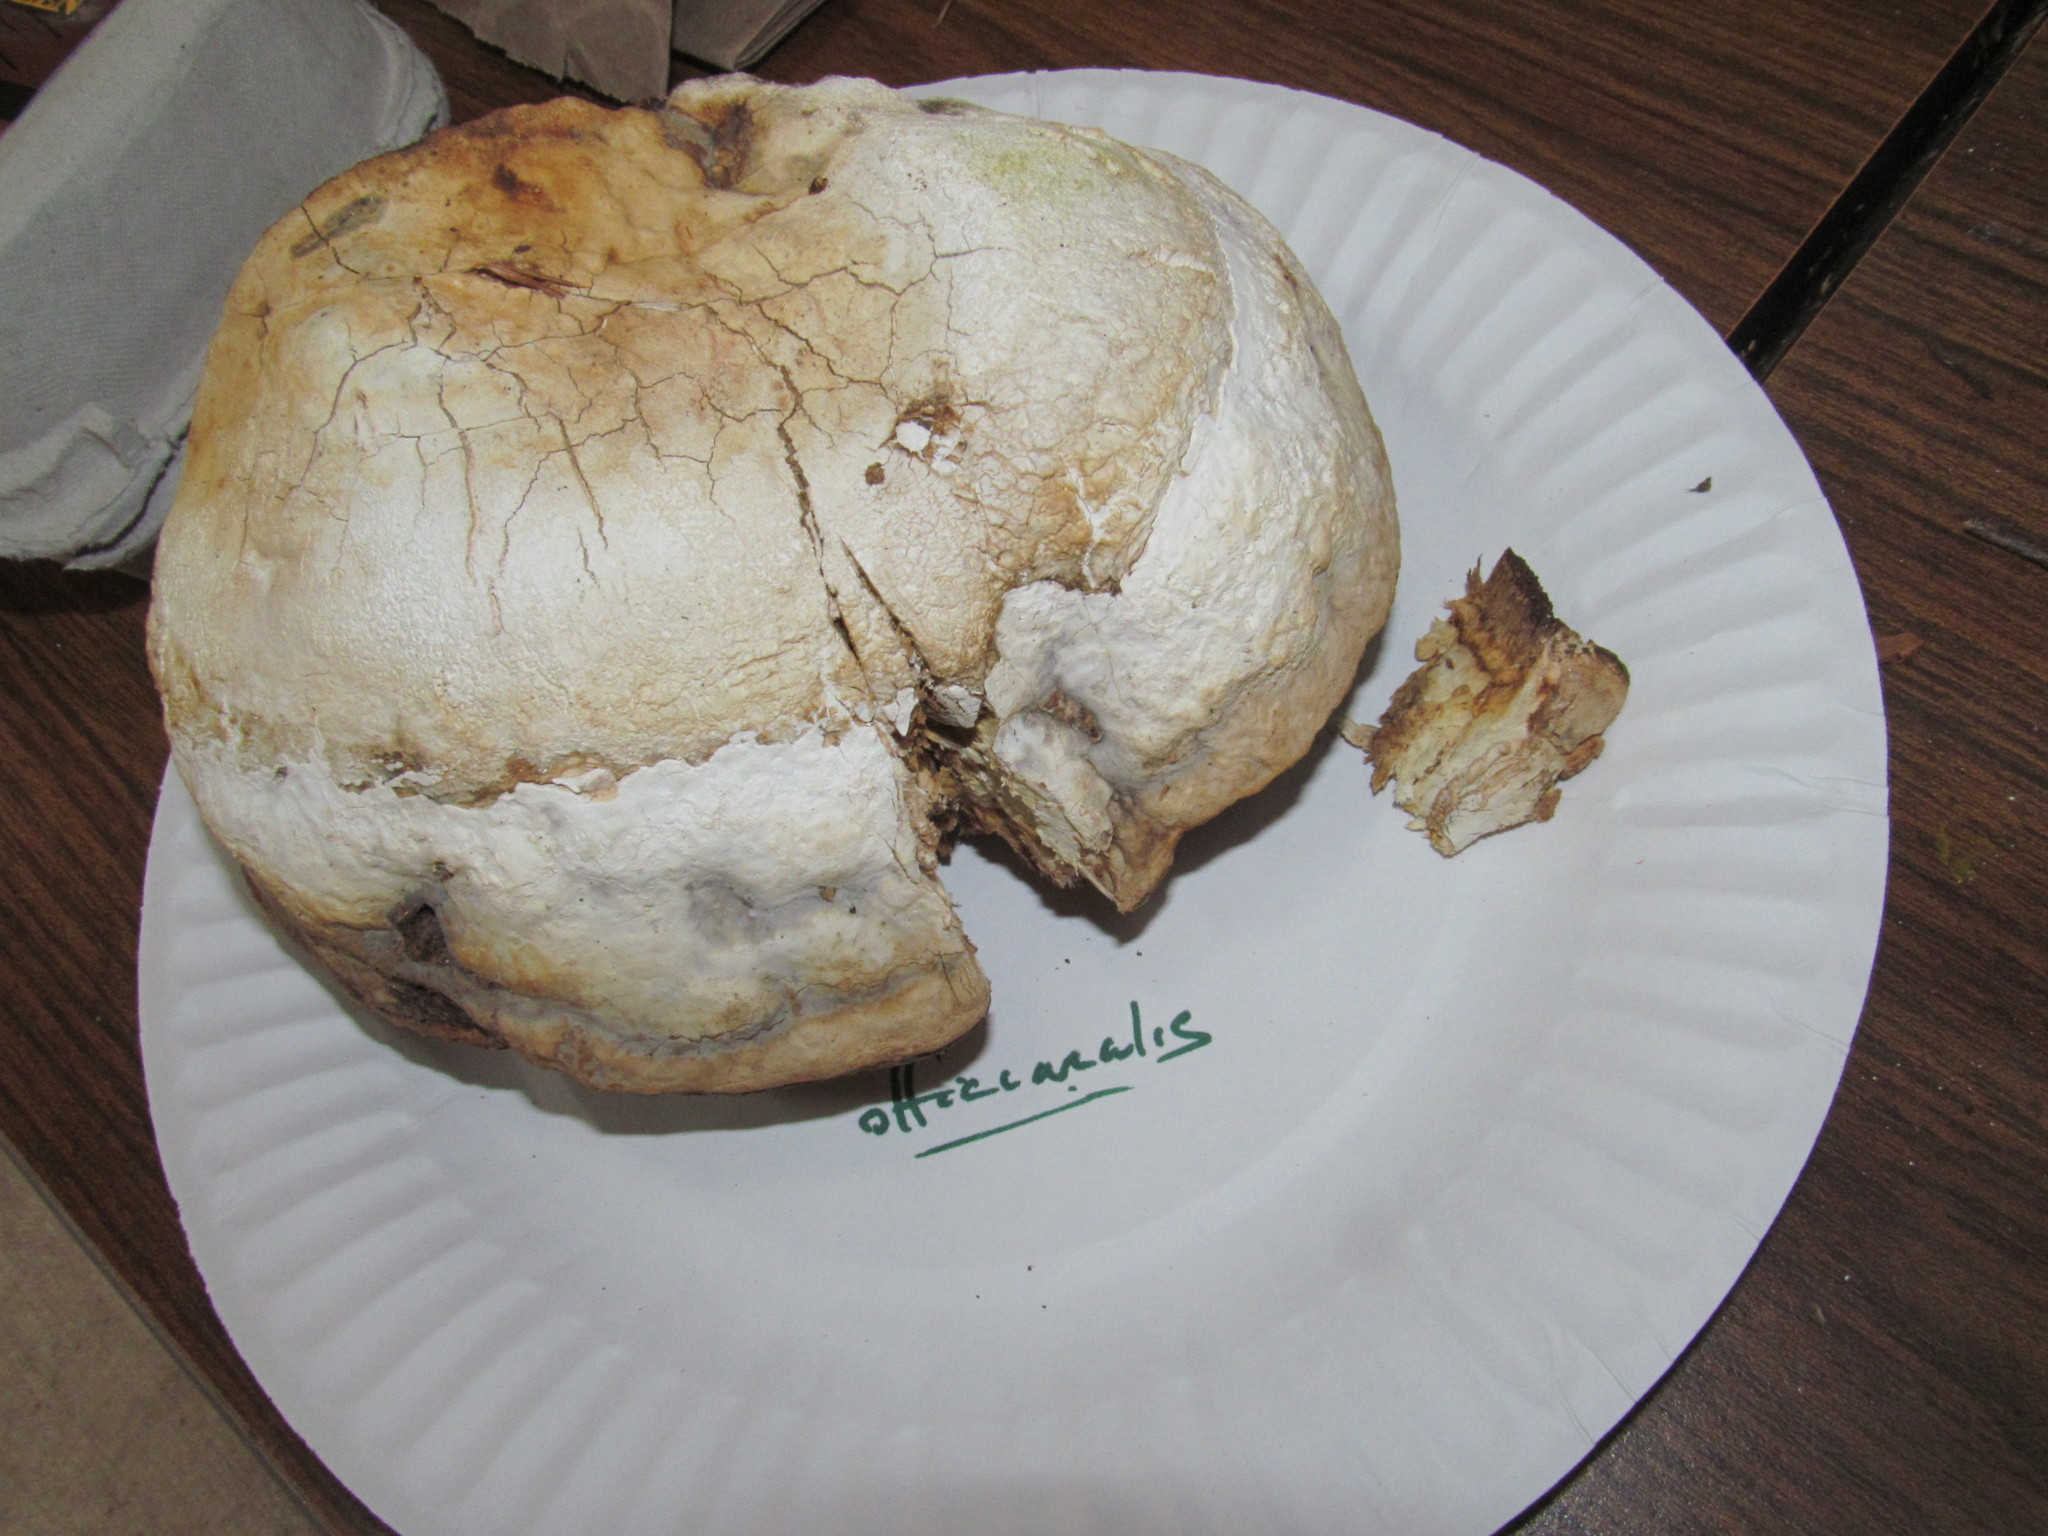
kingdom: Fungi
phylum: Basidiomycota
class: Agaricomycetes
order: Polyporales
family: Fomitopsidaceae
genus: Fomitopsis
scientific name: Fomitopsis officinalis
